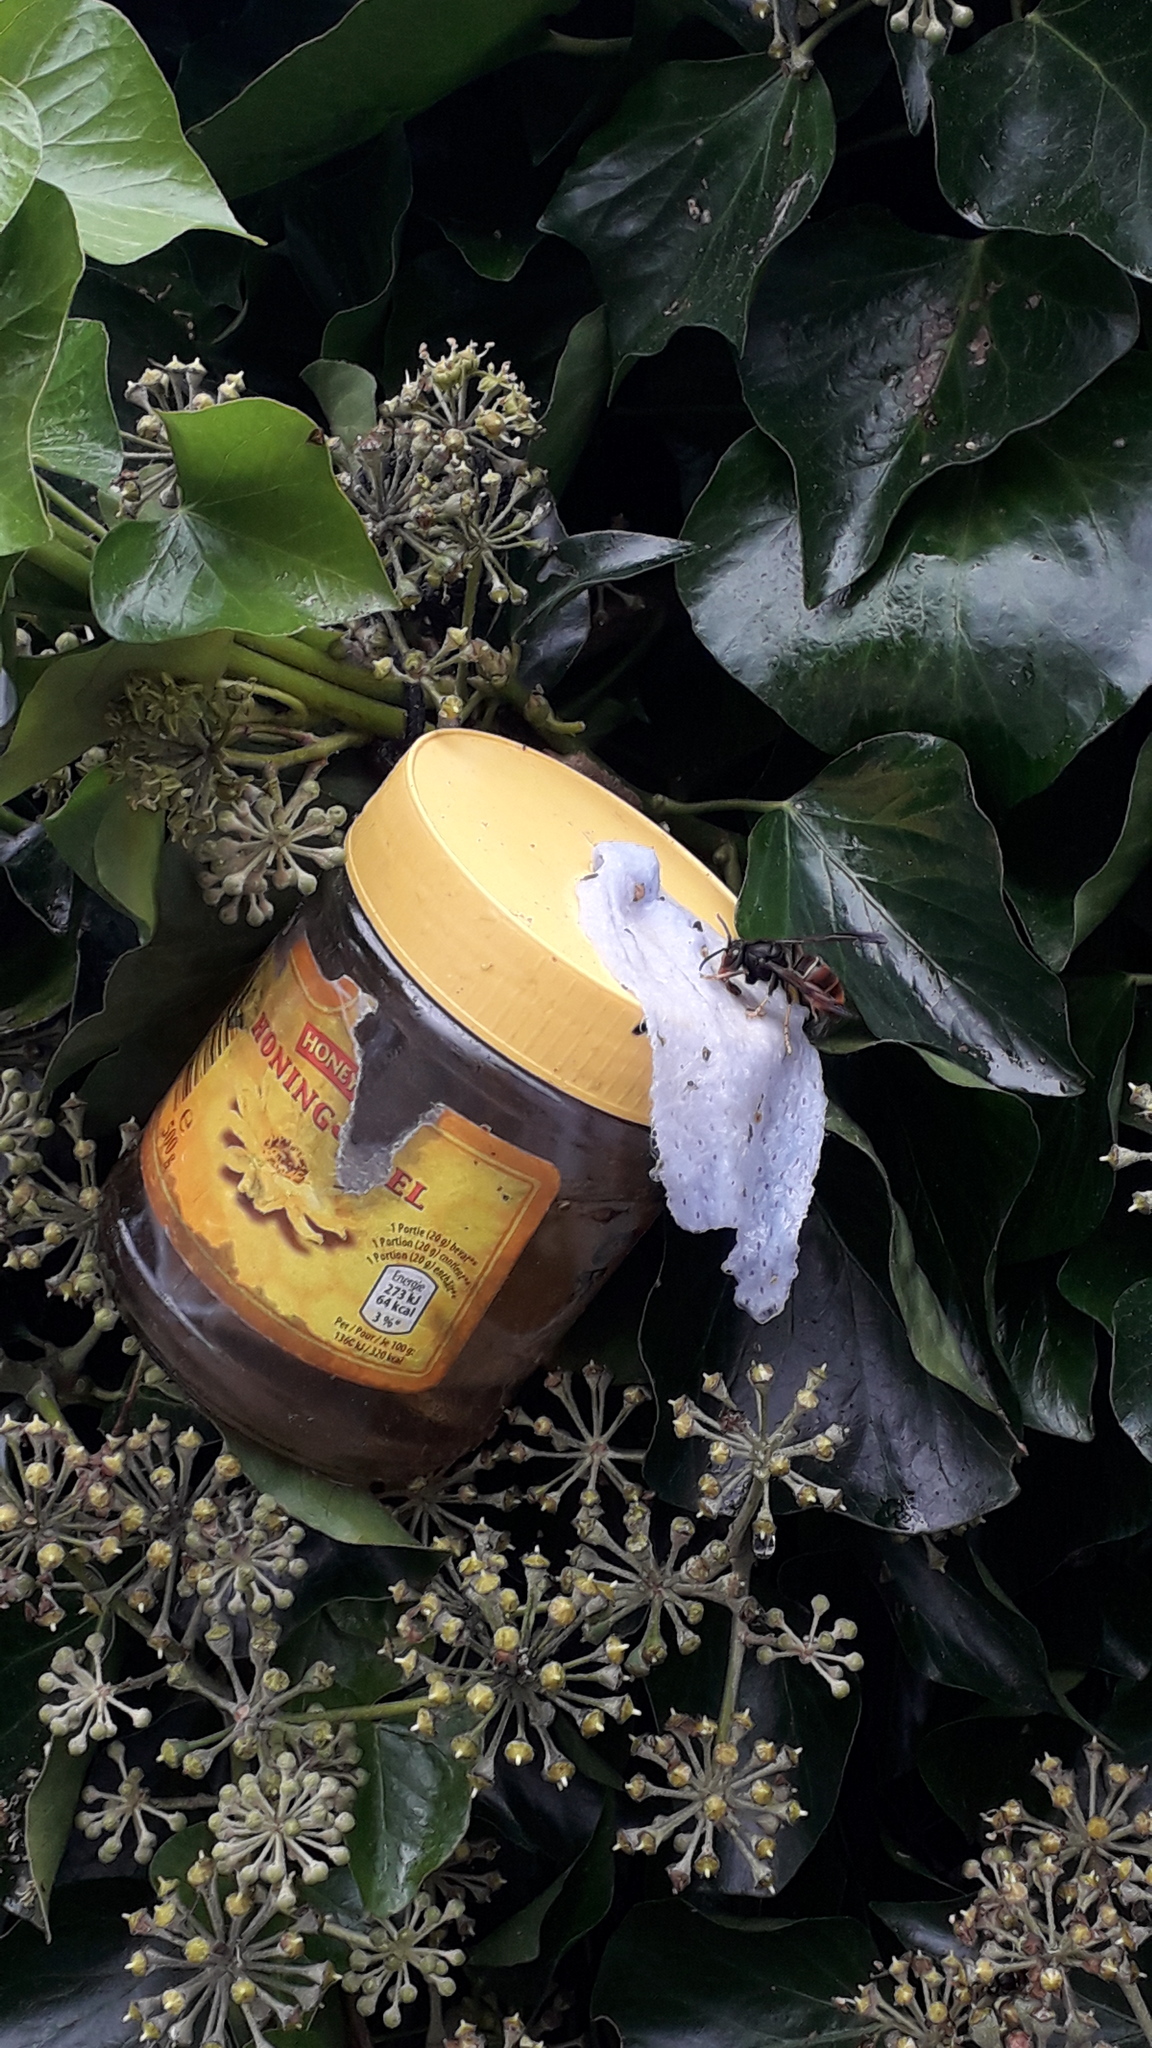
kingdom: Animalia
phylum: Arthropoda
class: Insecta
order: Hymenoptera
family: Vespidae
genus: Vespa
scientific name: Vespa velutina
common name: Asian hornet
